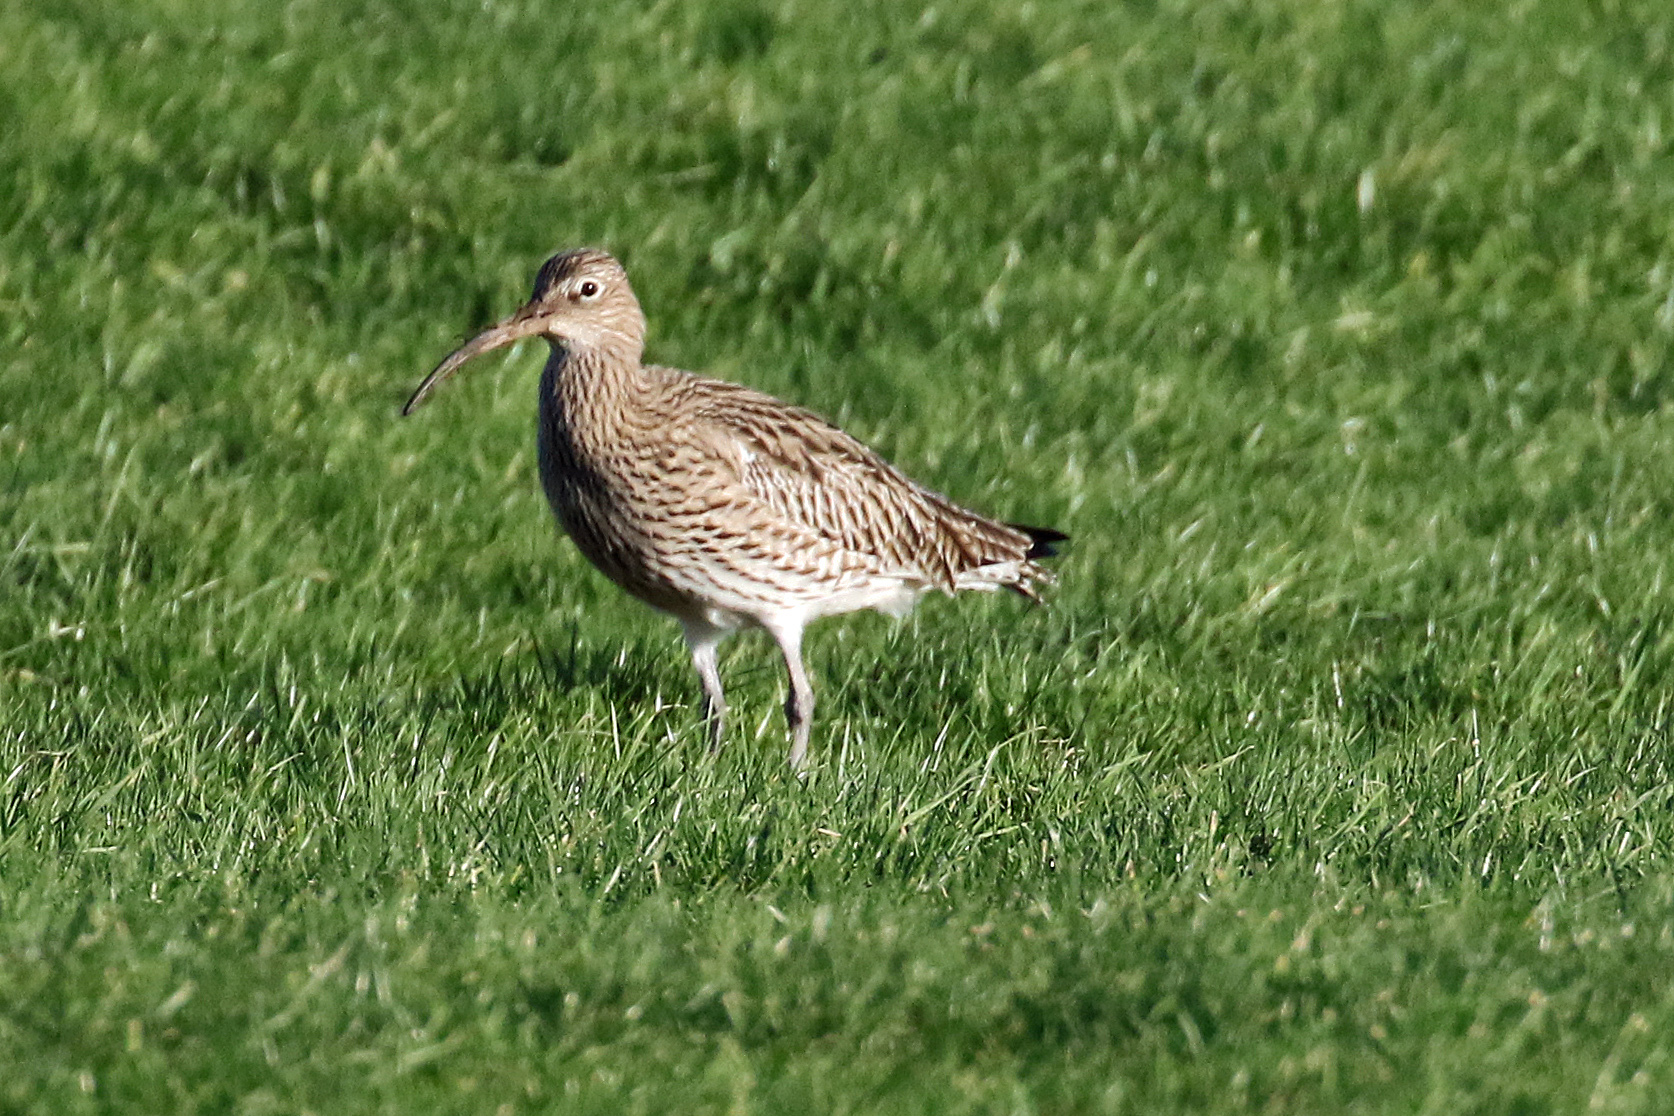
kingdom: Animalia
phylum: Chordata
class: Aves
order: Charadriiformes
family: Scolopacidae
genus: Numenius
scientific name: Numenius arquata
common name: Eurasian curlew
